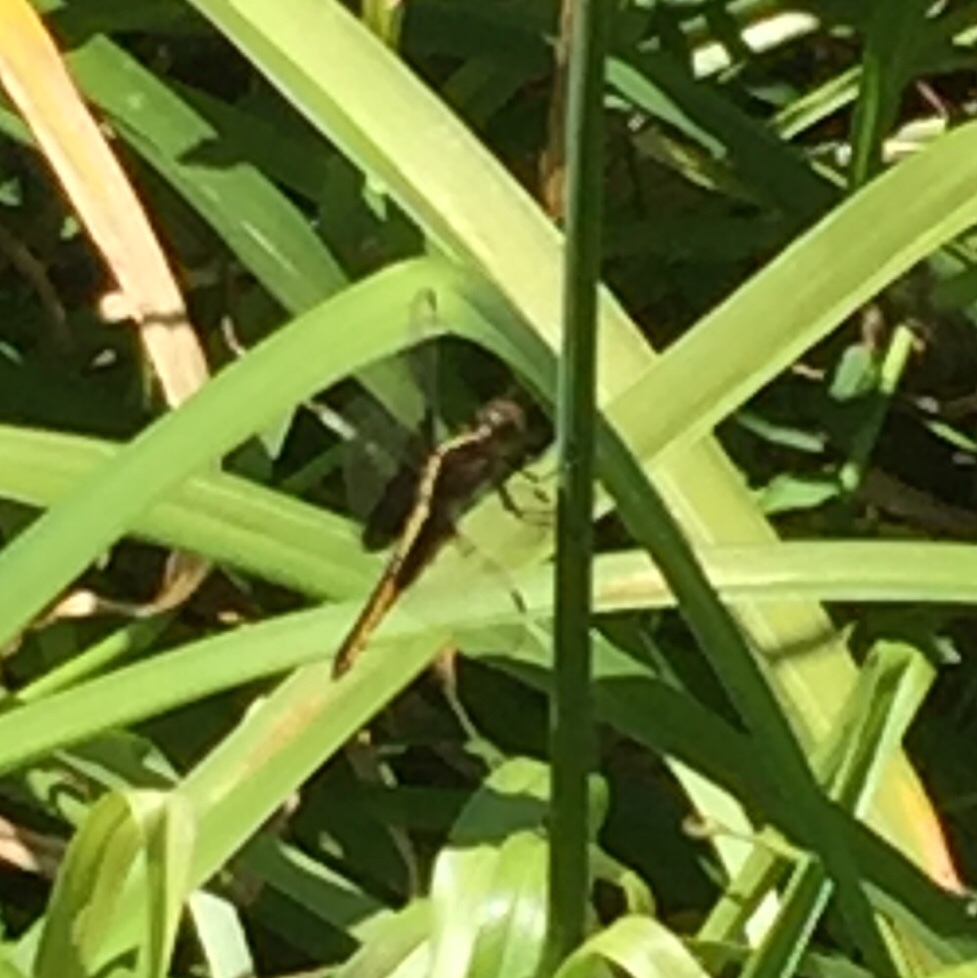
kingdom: Animalia
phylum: Arthropoda
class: Insecta
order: Odonata
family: Libellulidae
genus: Libellula
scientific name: Libellula luctuosa
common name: Widow skimmer
